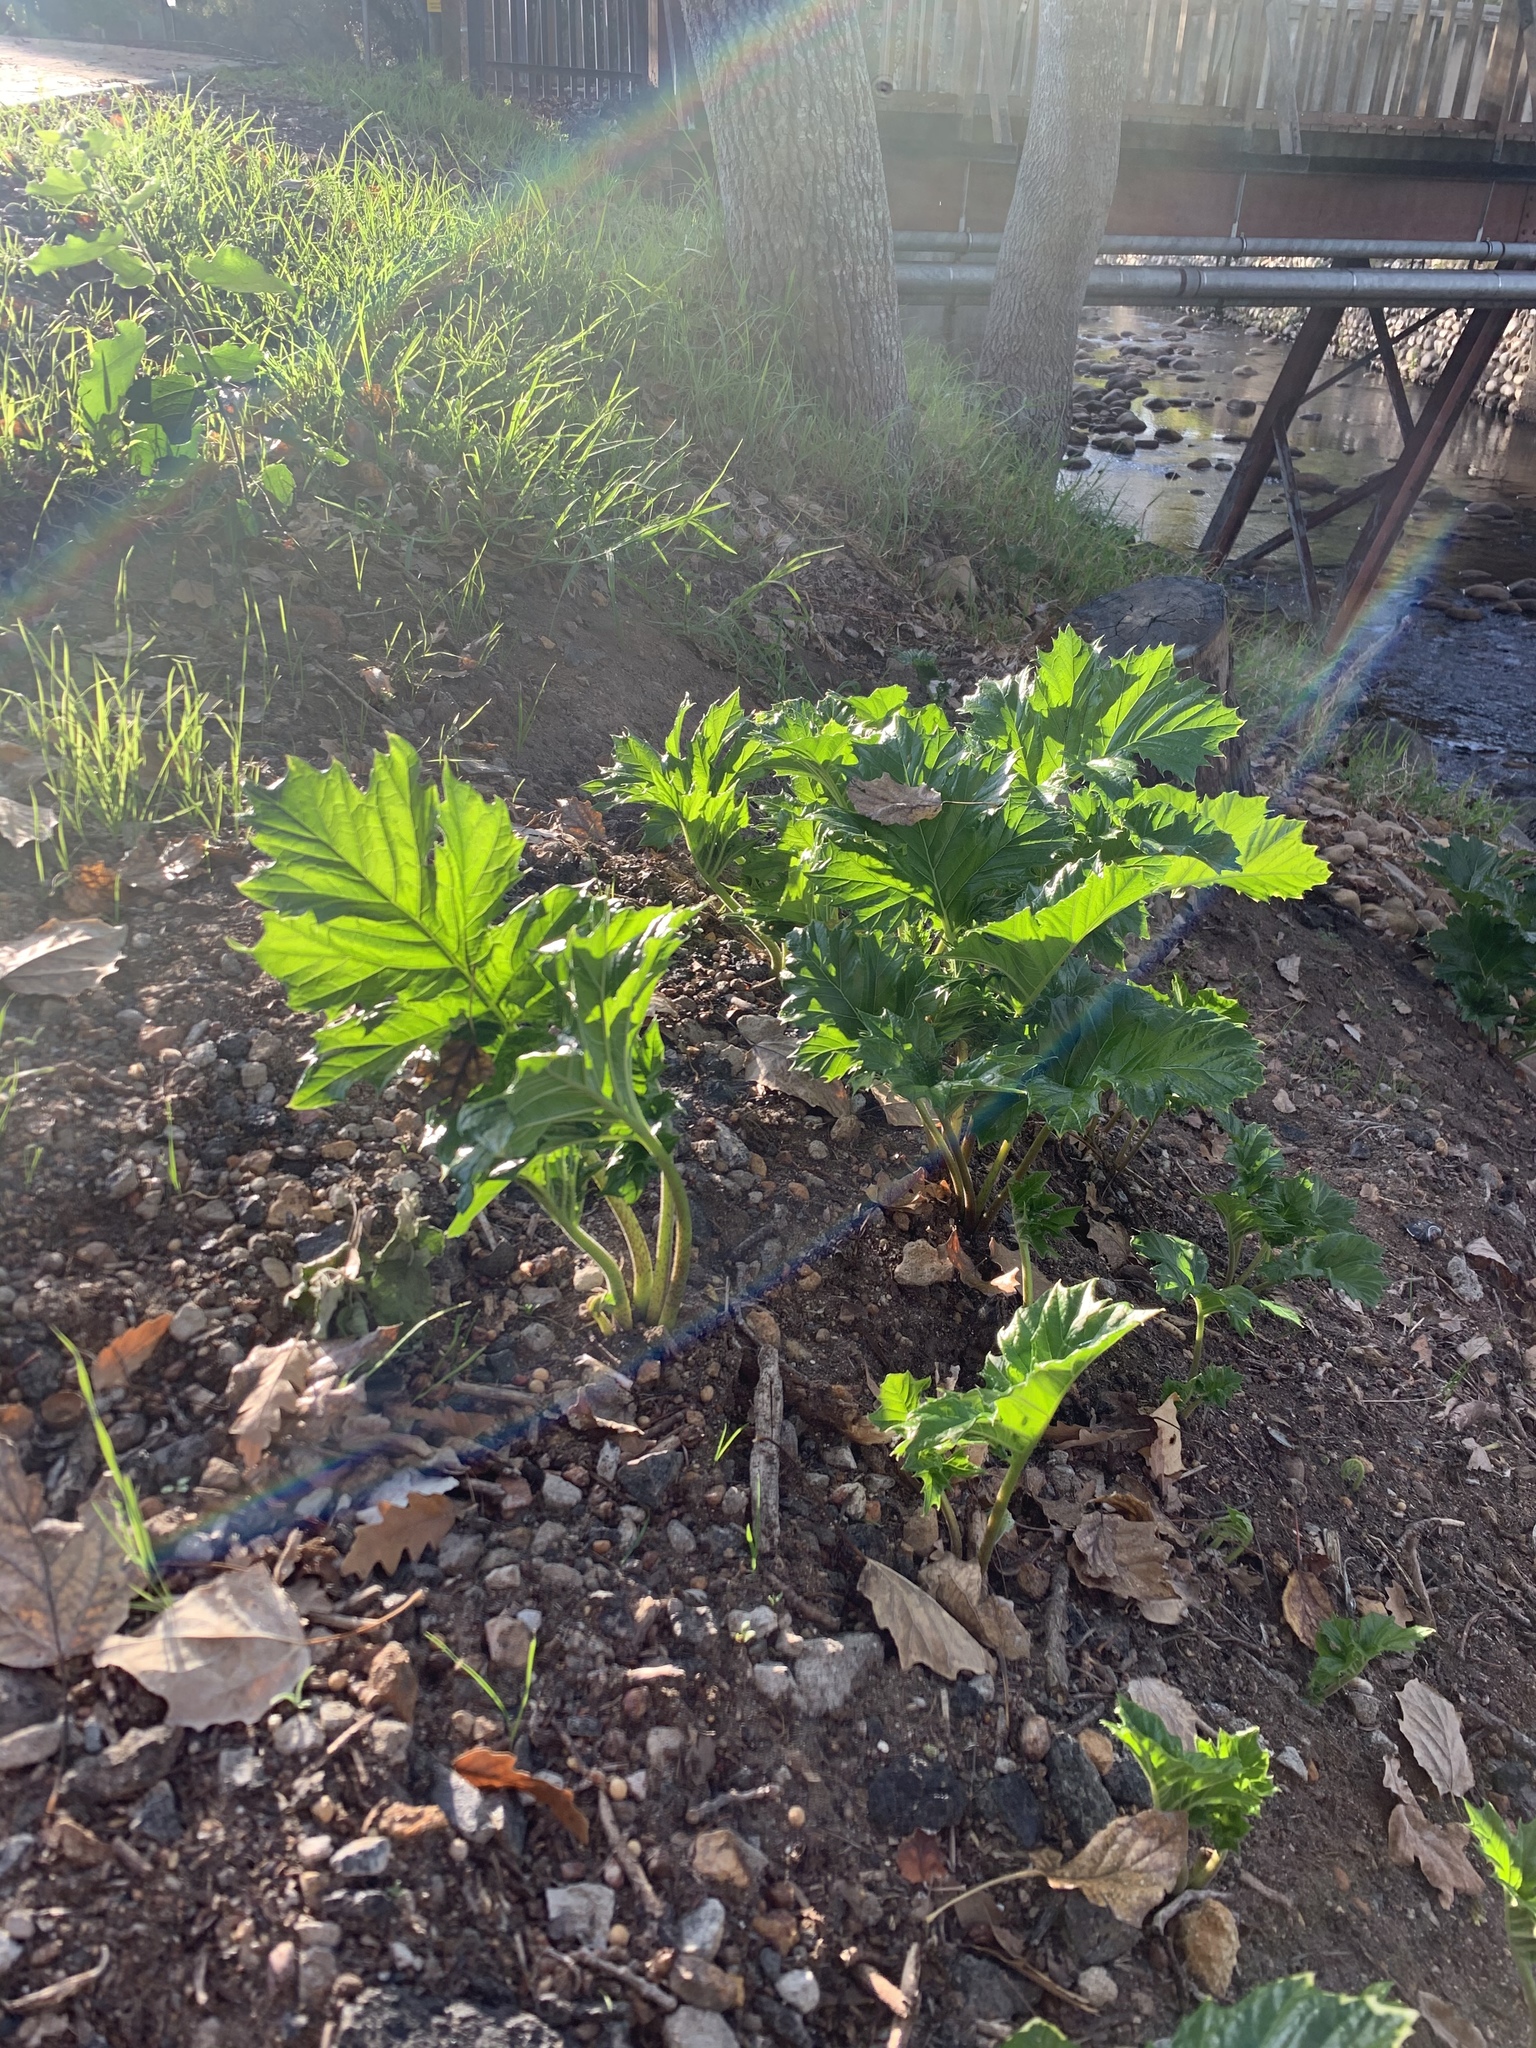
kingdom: Plantae
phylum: Tracheophyta
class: Magnoliopsida
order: Lamiales
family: Acanthaceae
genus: Acanthus
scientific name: Acanthus mollis
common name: Bear's-breech
